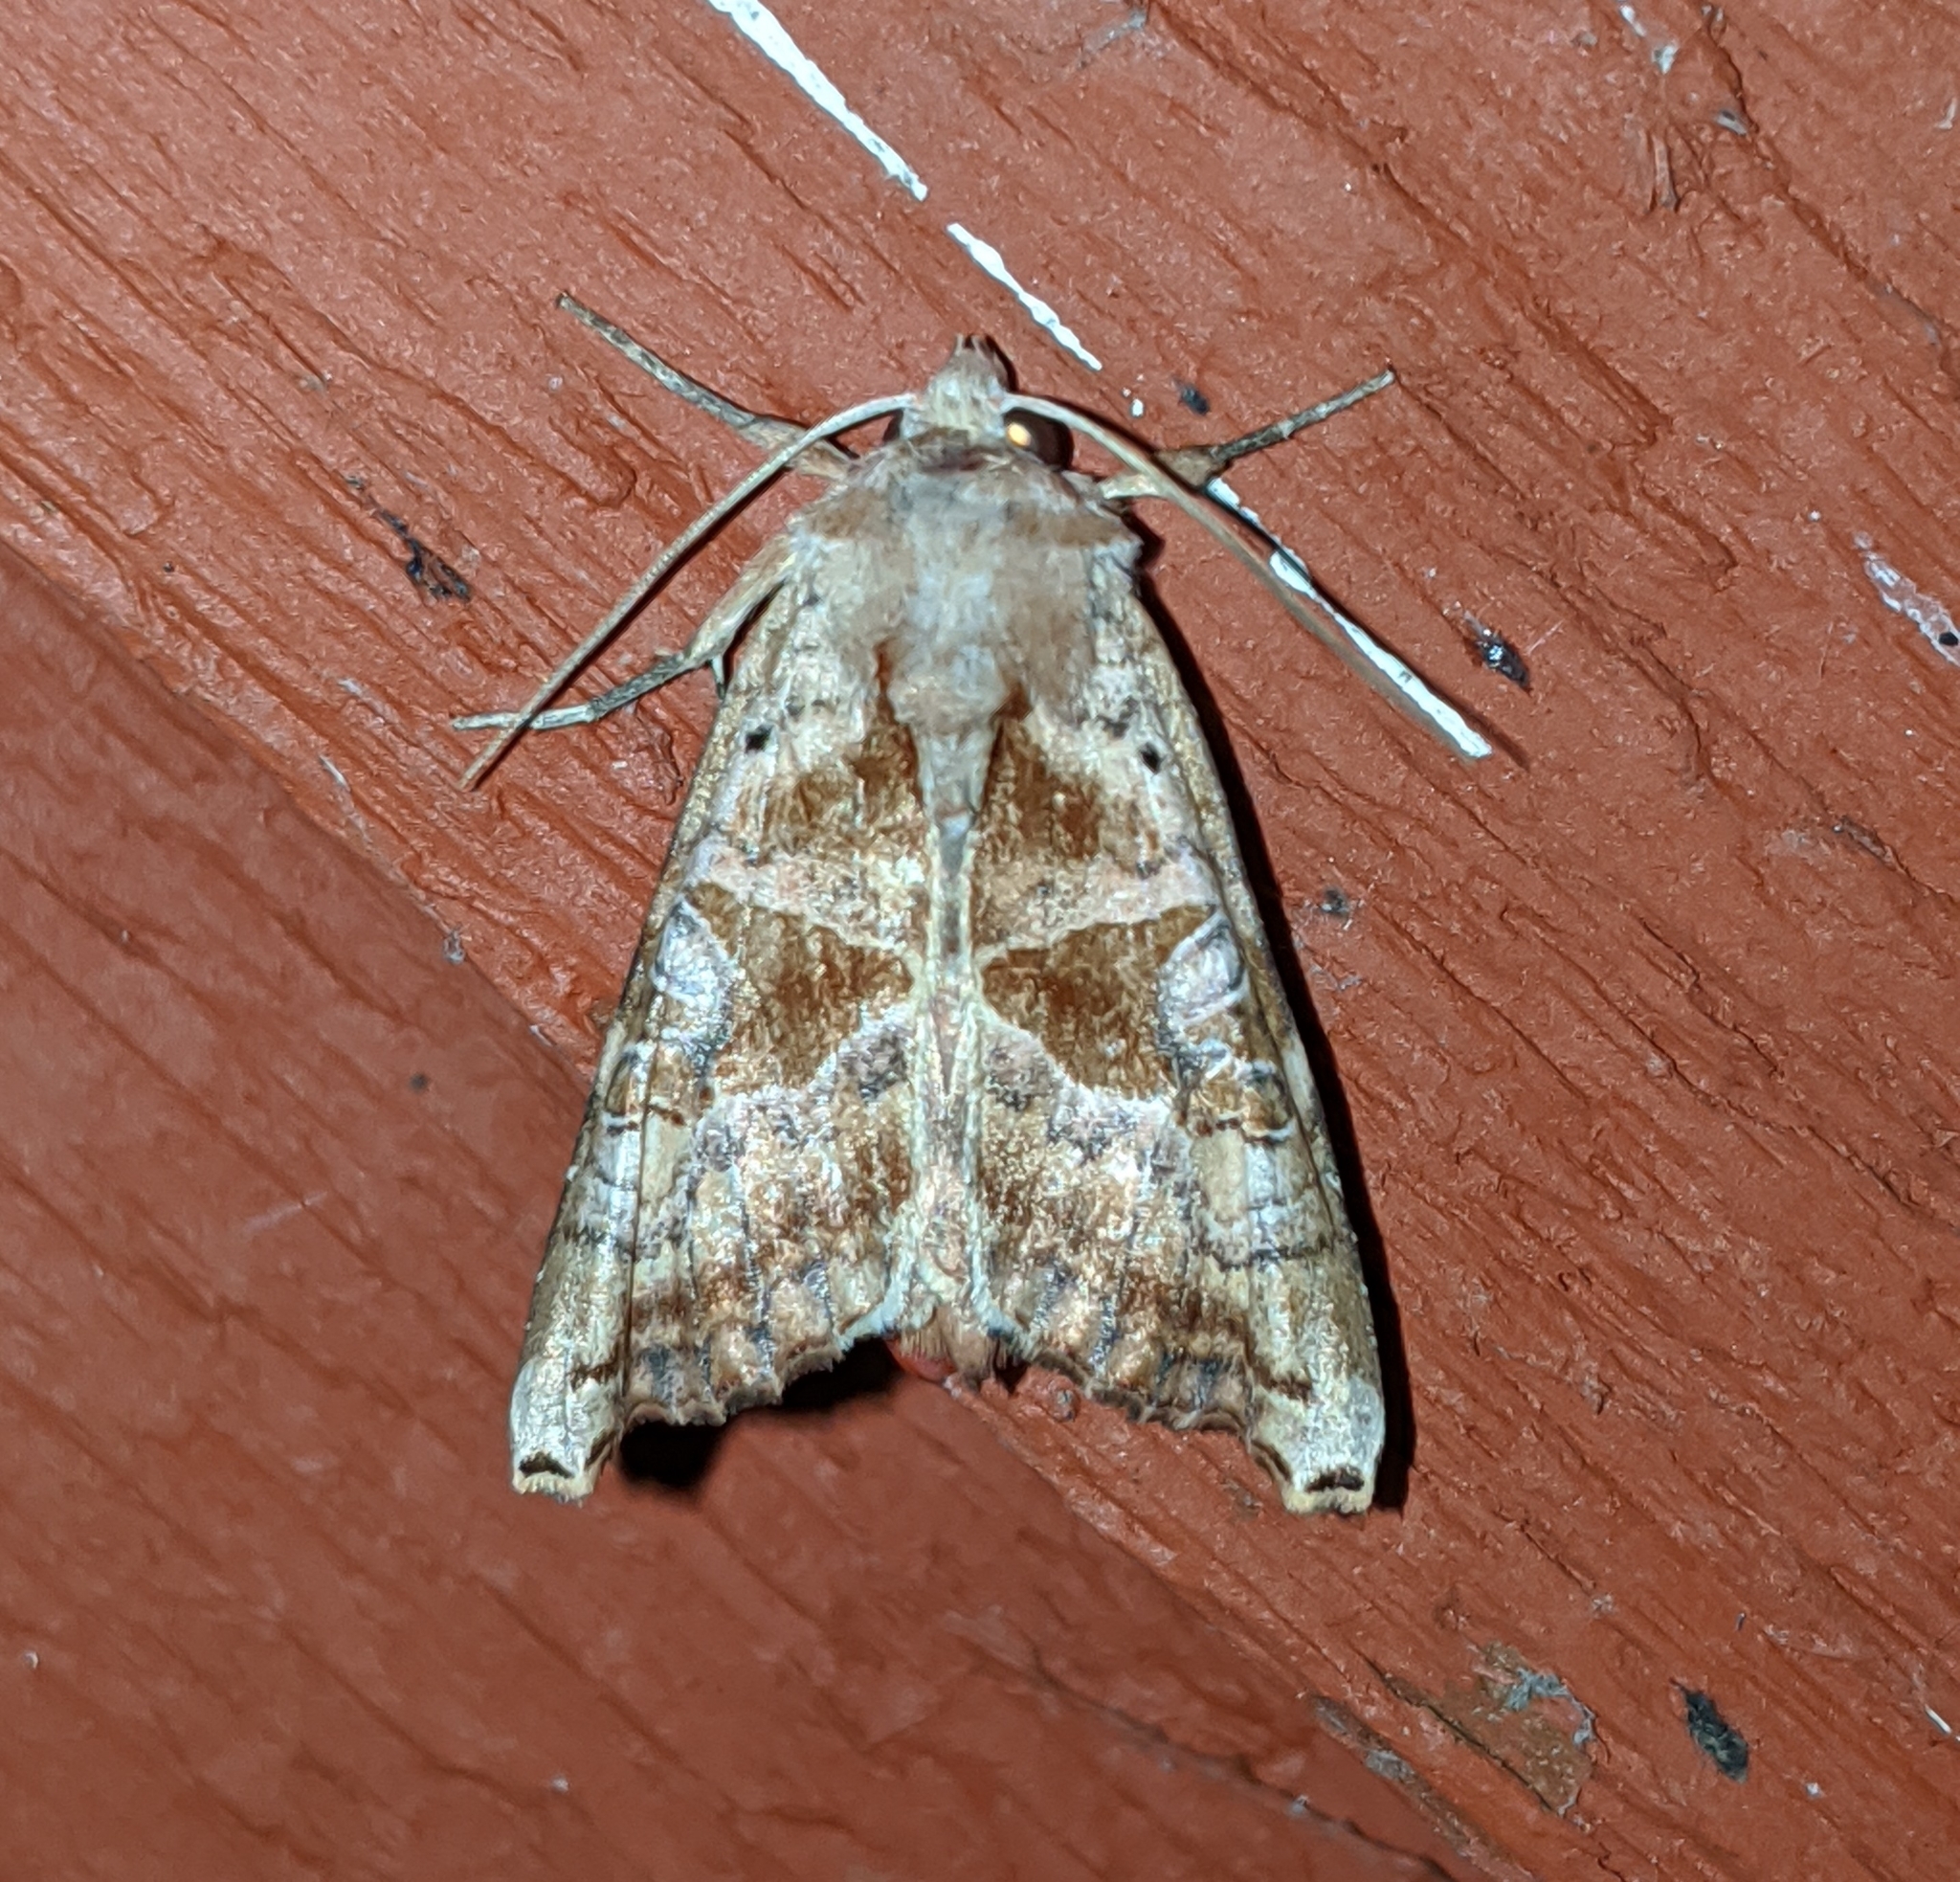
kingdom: Animalia
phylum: Arthropoda
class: Insecta
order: Lepidoptera
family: Noctuidae
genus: Phlogophora
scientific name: Phlogophora periculosa
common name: Brown angle shades
